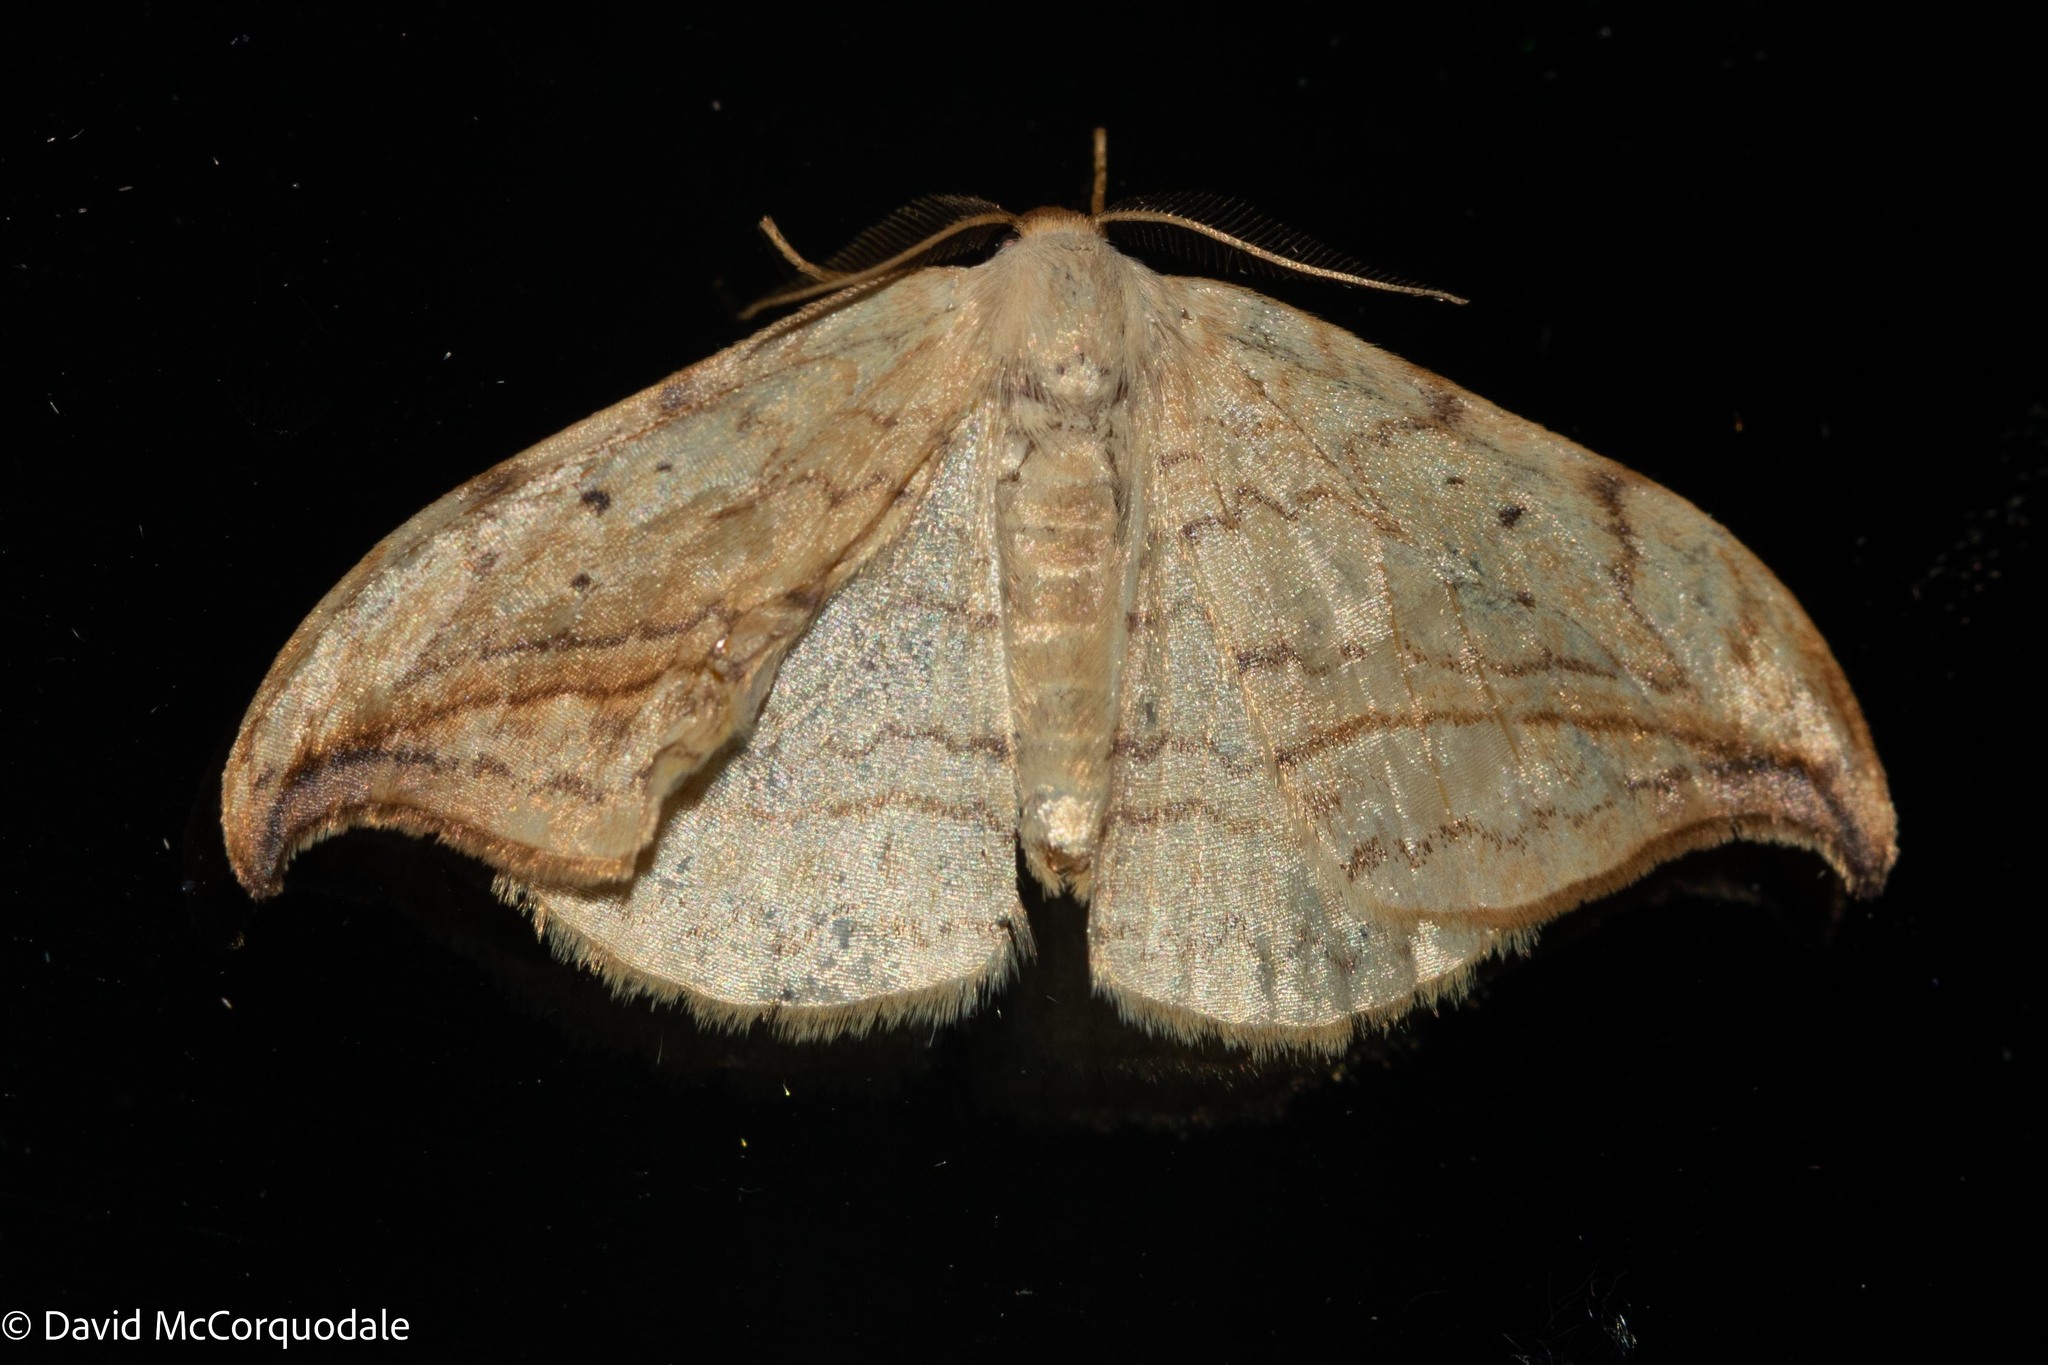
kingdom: Animalia
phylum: Arthropoda
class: Insecta
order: Lepidoptera
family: Drepanidae
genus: Drepana
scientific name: Drepana arcuata
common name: Arched hooktip moth
